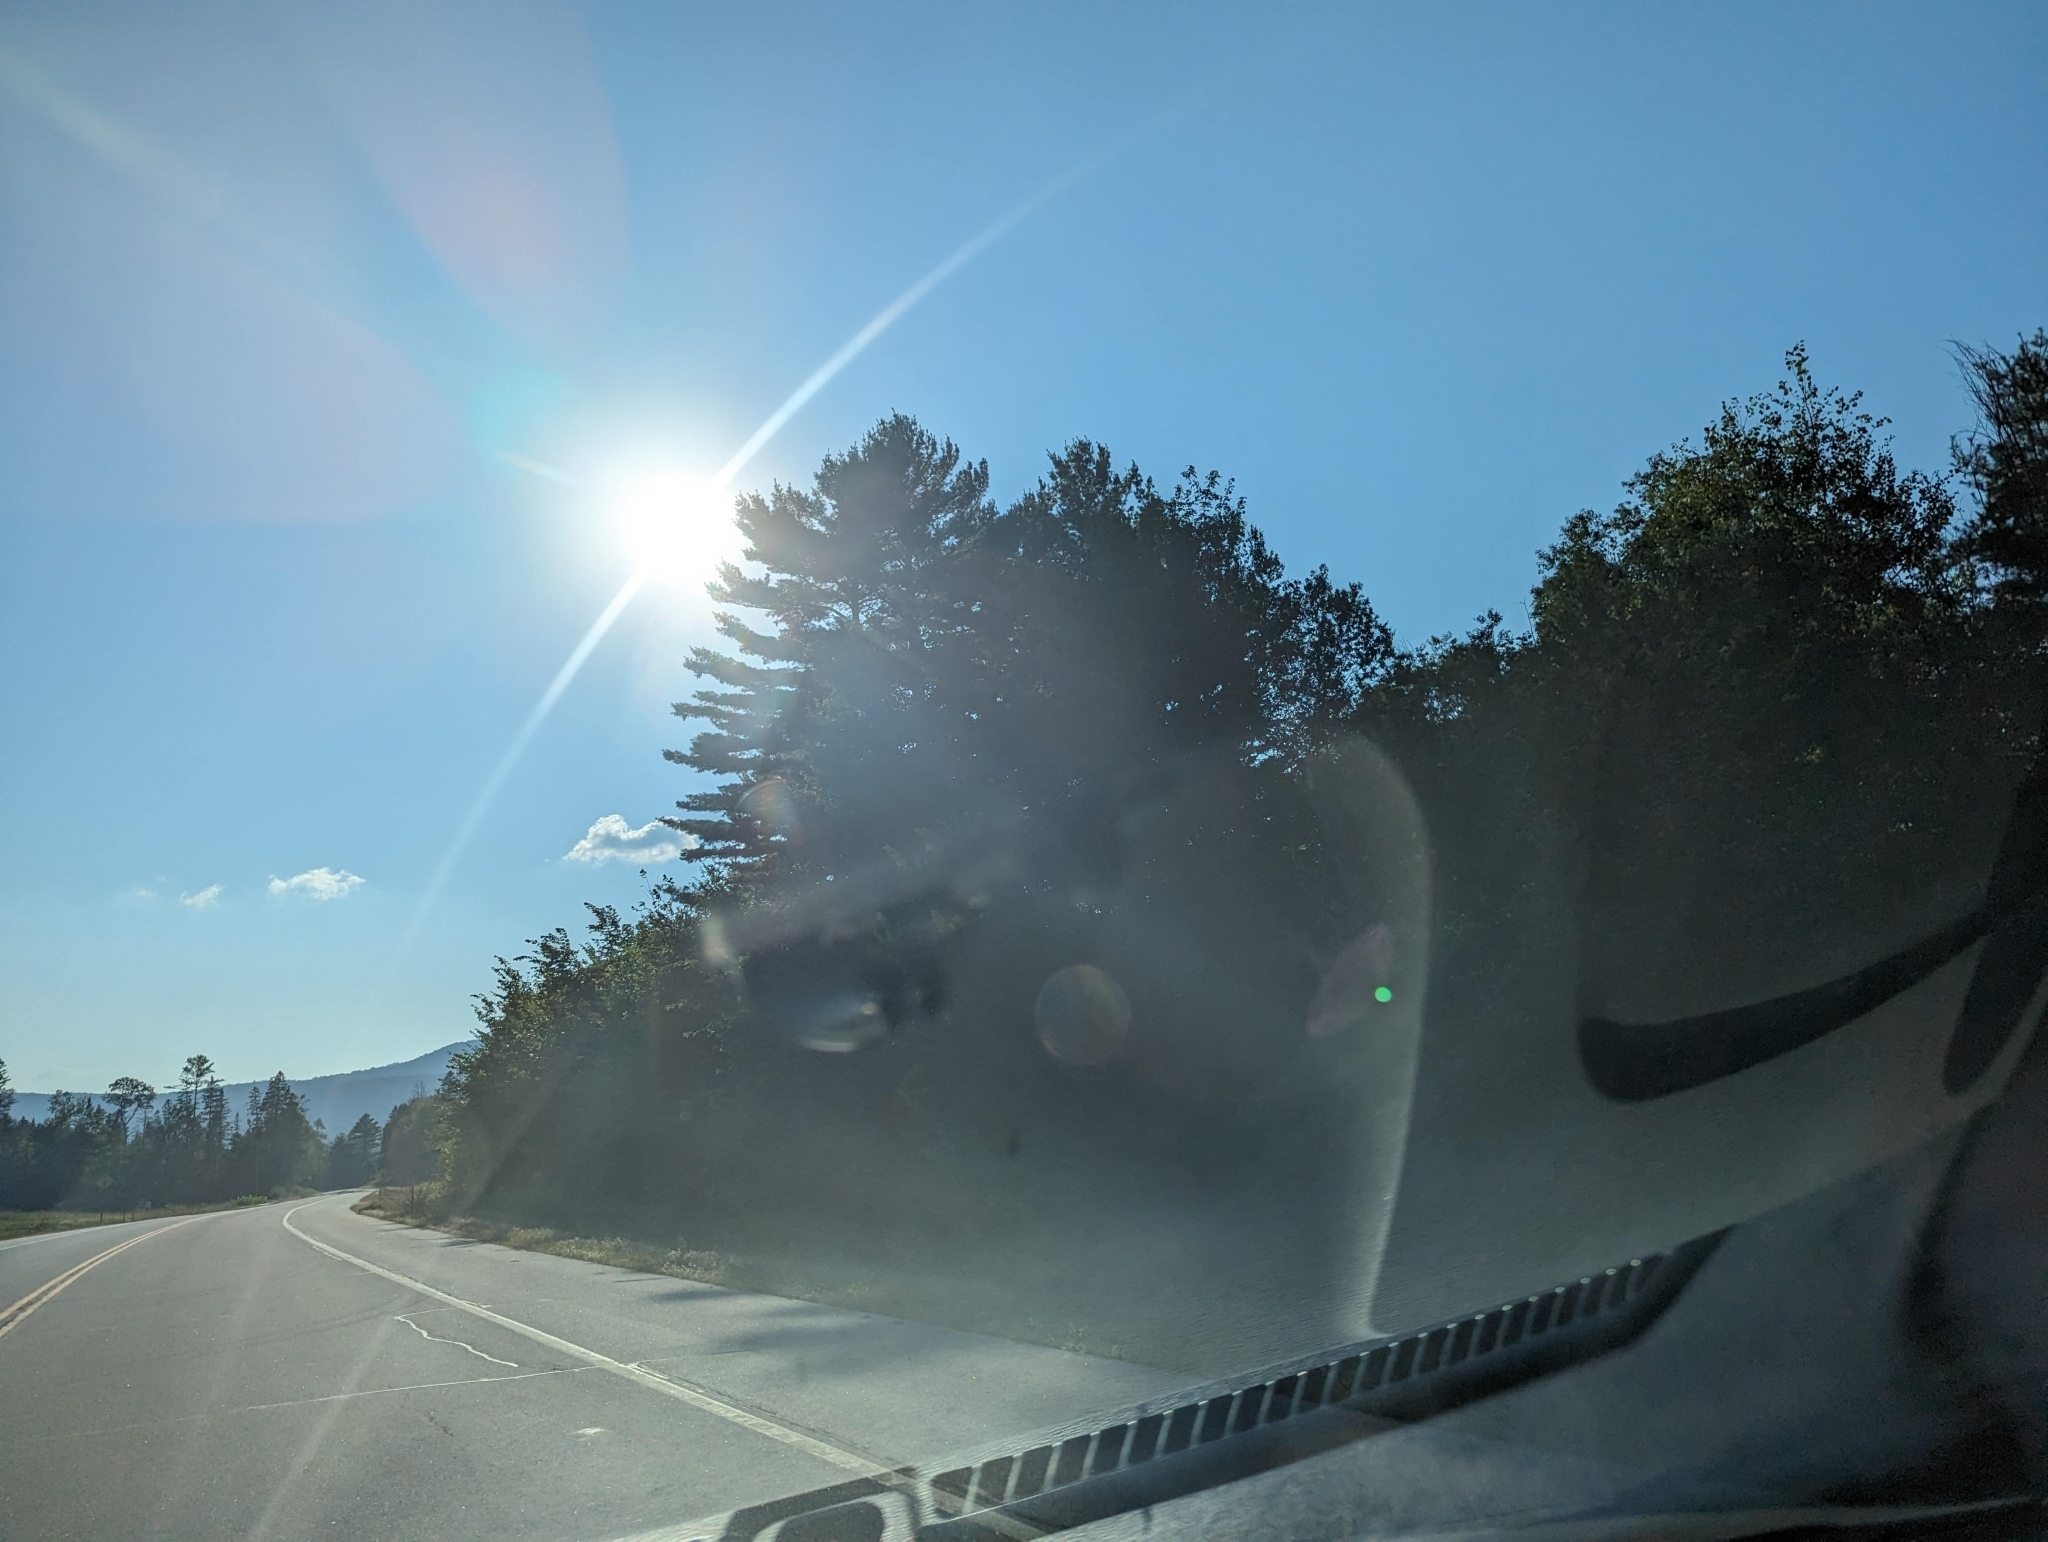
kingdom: Plantae
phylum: Tracheophyta
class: Pinopsida
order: Pinales
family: Pinaceae
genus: Pinus
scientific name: Pinus strobus
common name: Weymouth pine
